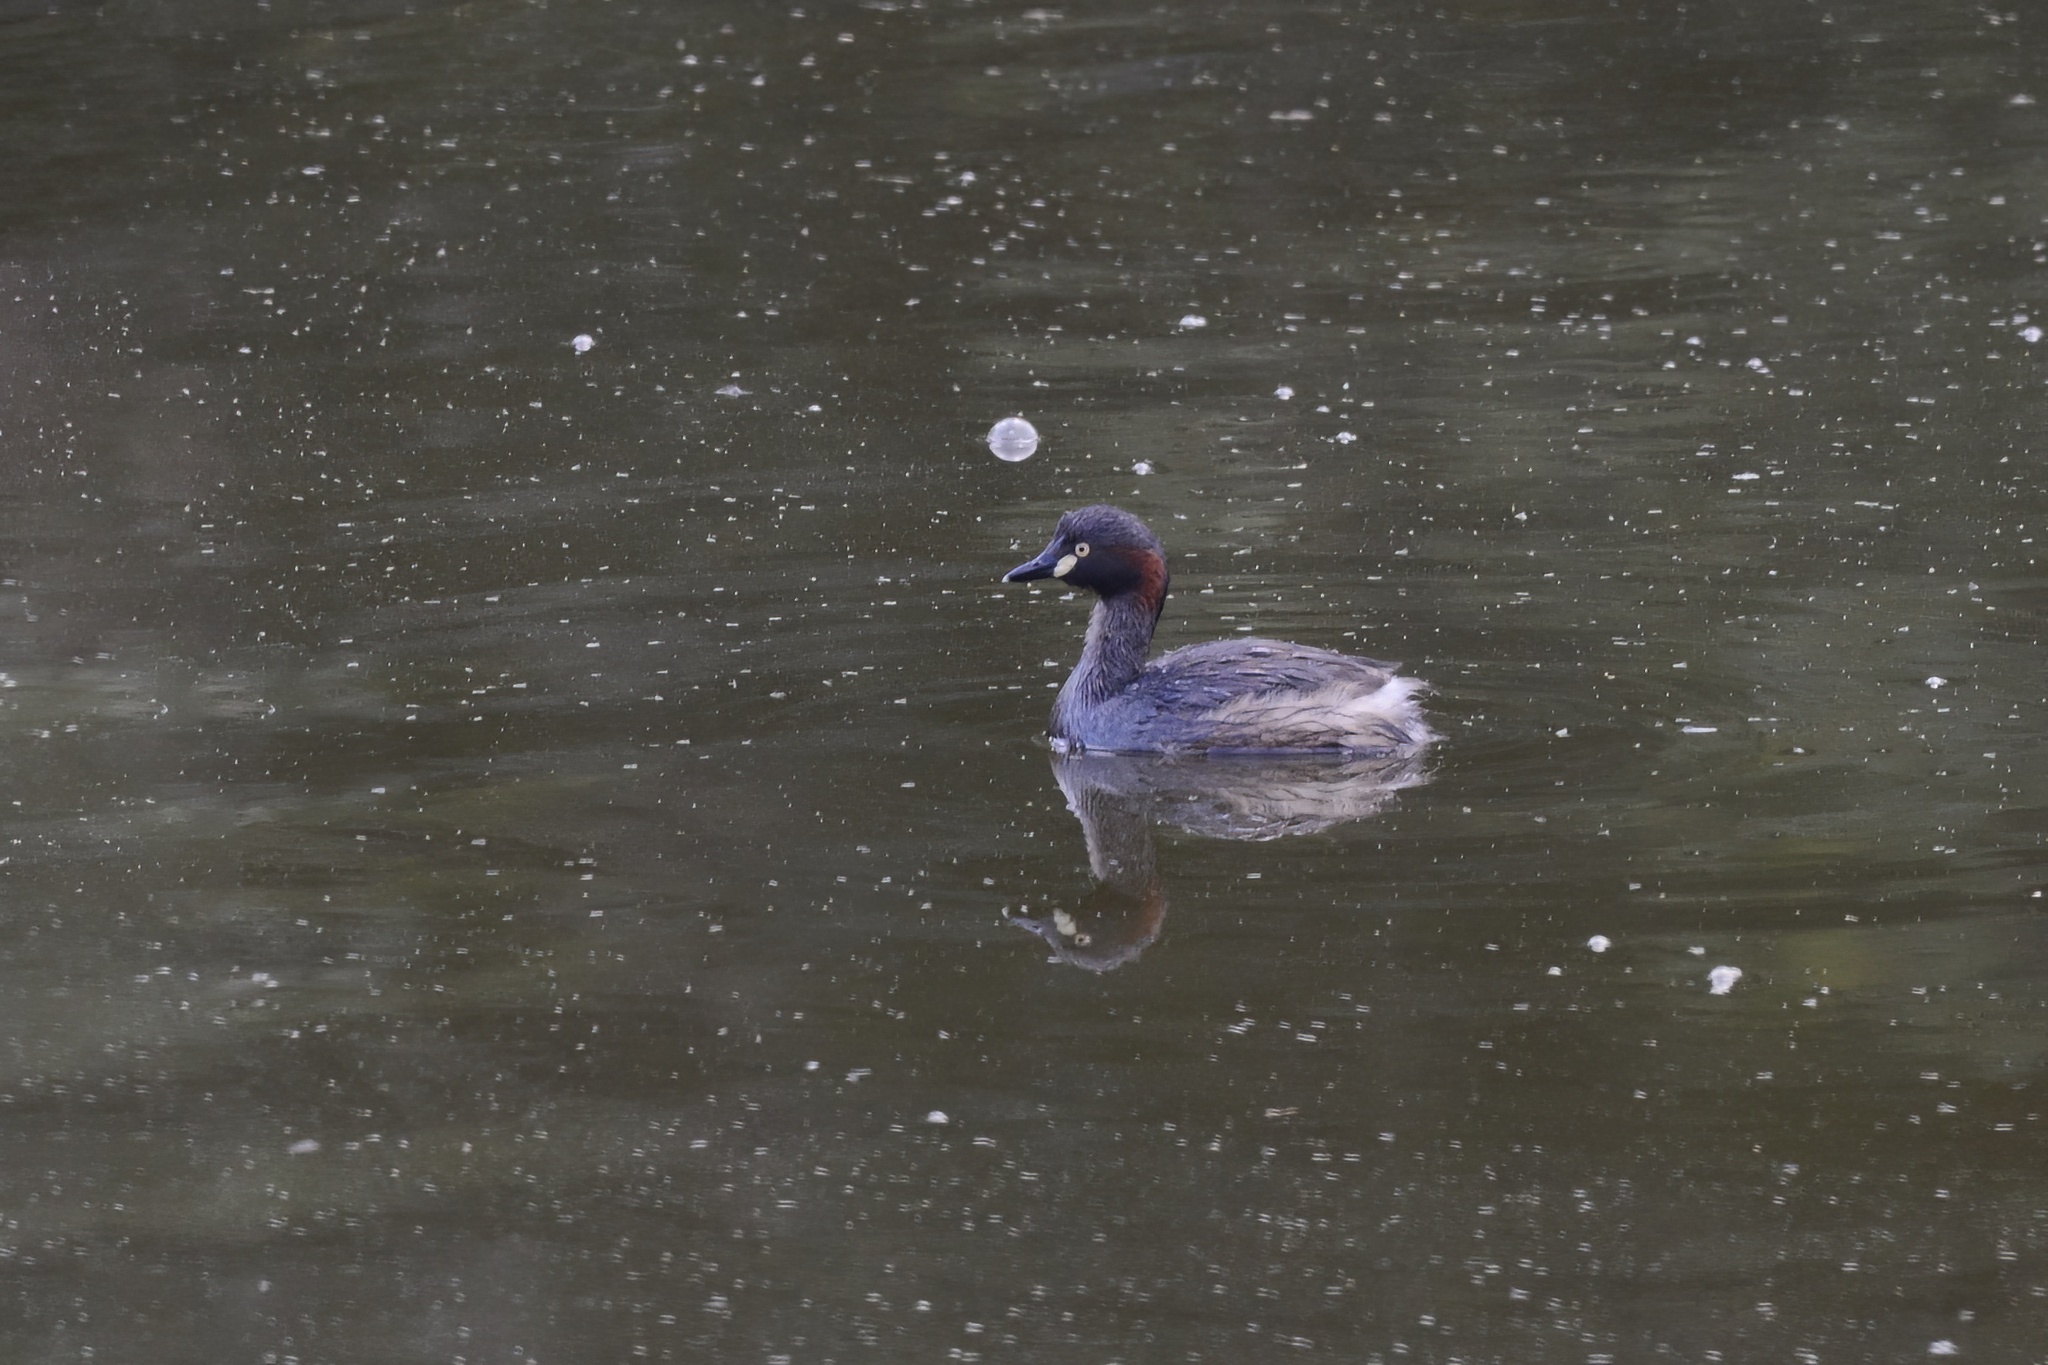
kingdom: Animalia
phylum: Chordata
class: Aves
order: Podicipediformes
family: Podicipedidae
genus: Tachybaptus
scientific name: Tachybaptus novaehollandiae
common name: Australasian grebe
